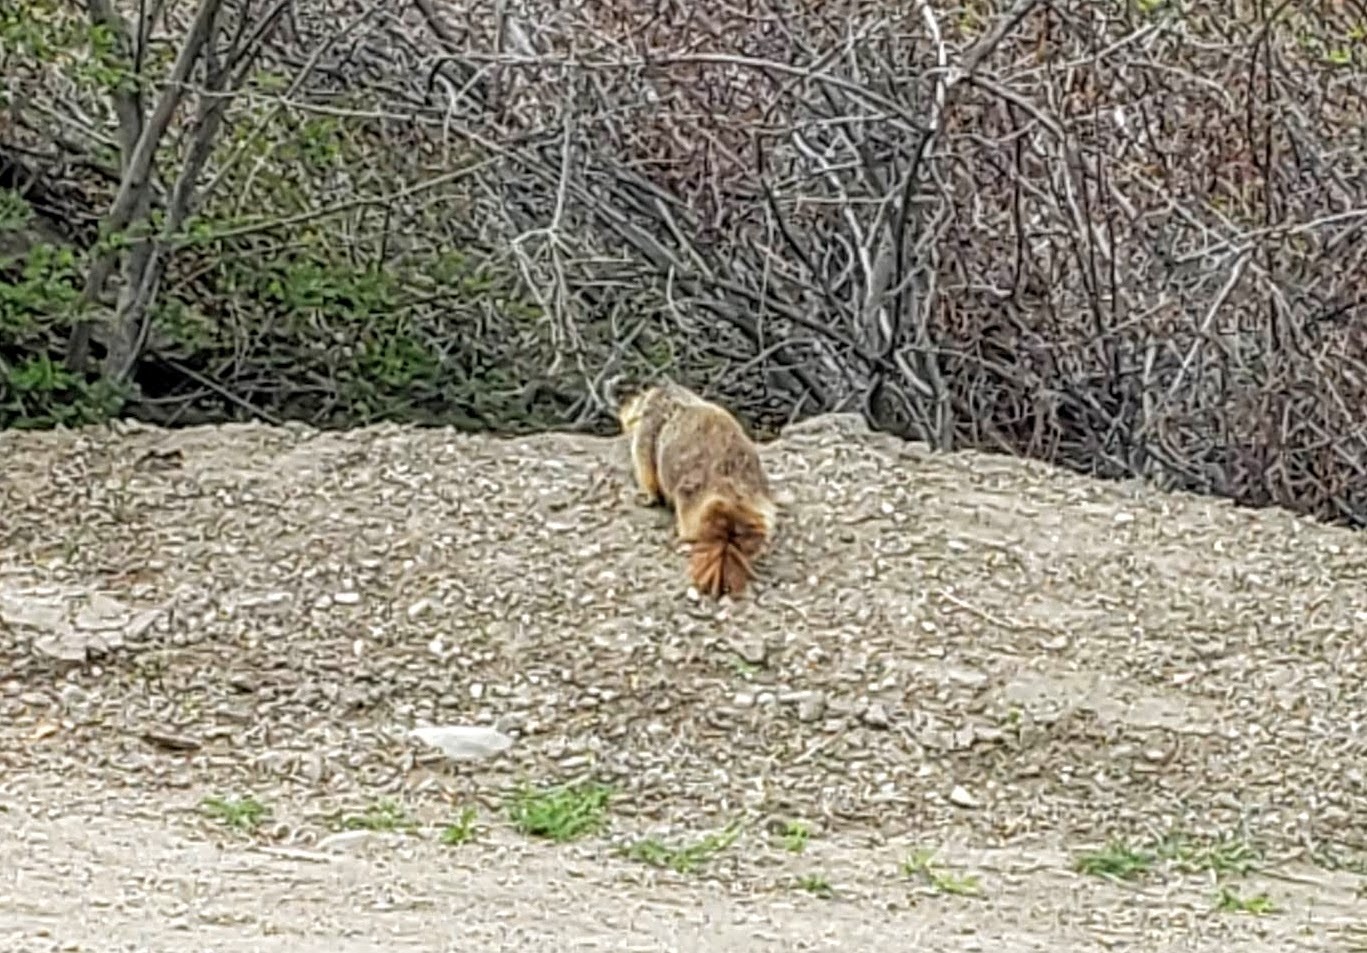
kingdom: Animalia
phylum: Chordata
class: Mammalia
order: Rodentia
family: Sciuridae
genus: Marmota
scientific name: Marmota flaviventris
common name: Yellow-bellied marmot
